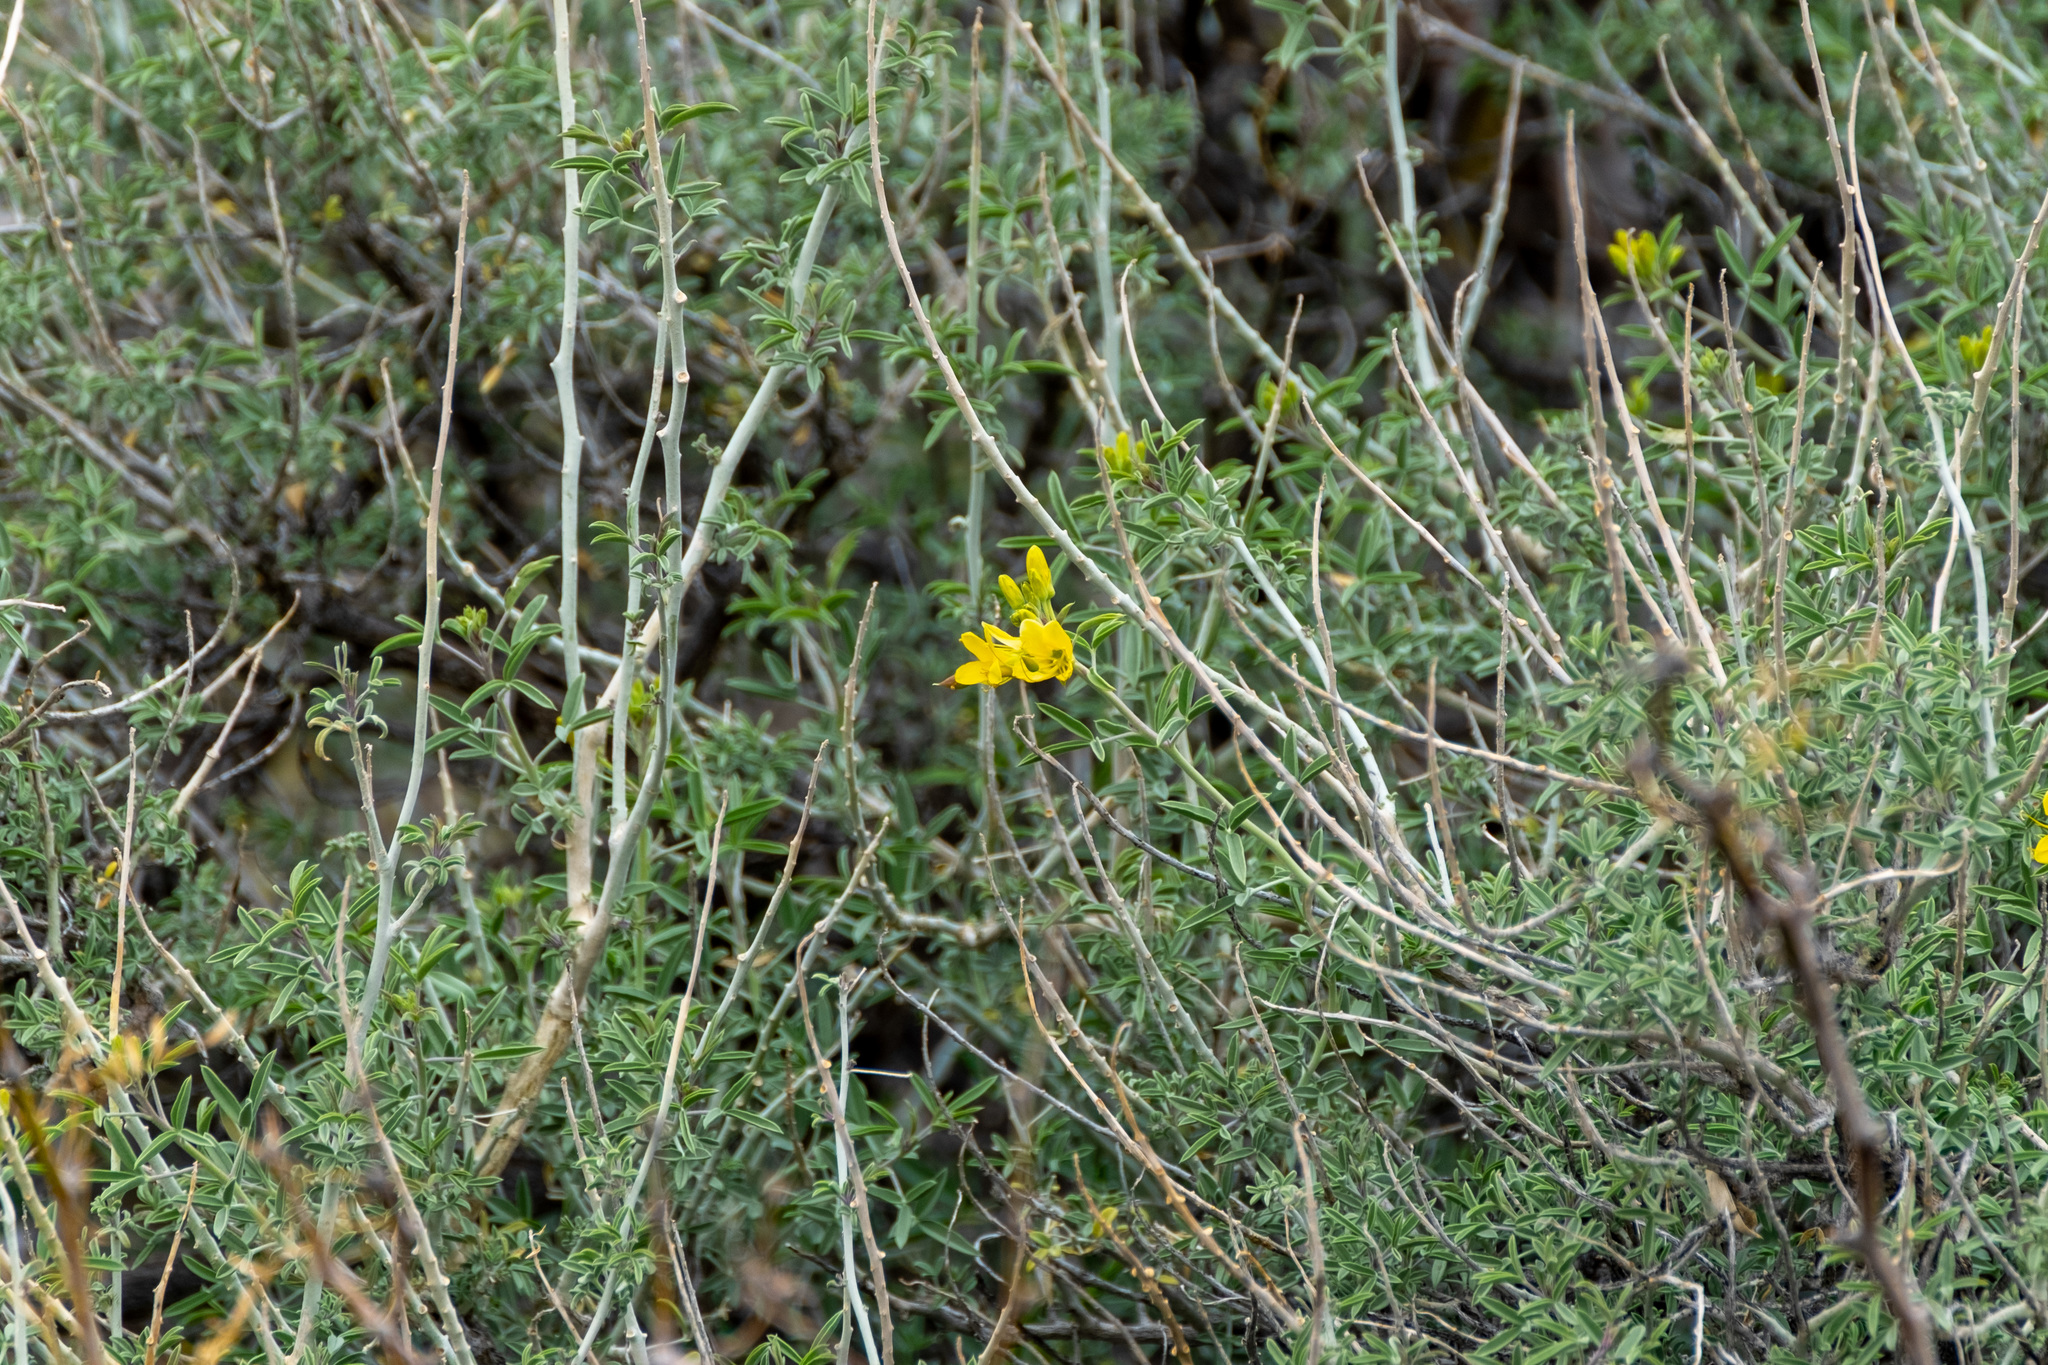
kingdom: Plantae
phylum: Tracheophyta
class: Magnoliopsida
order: Brassicales
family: Cleomaceae
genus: Cleomella
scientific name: Cleomella arborea
